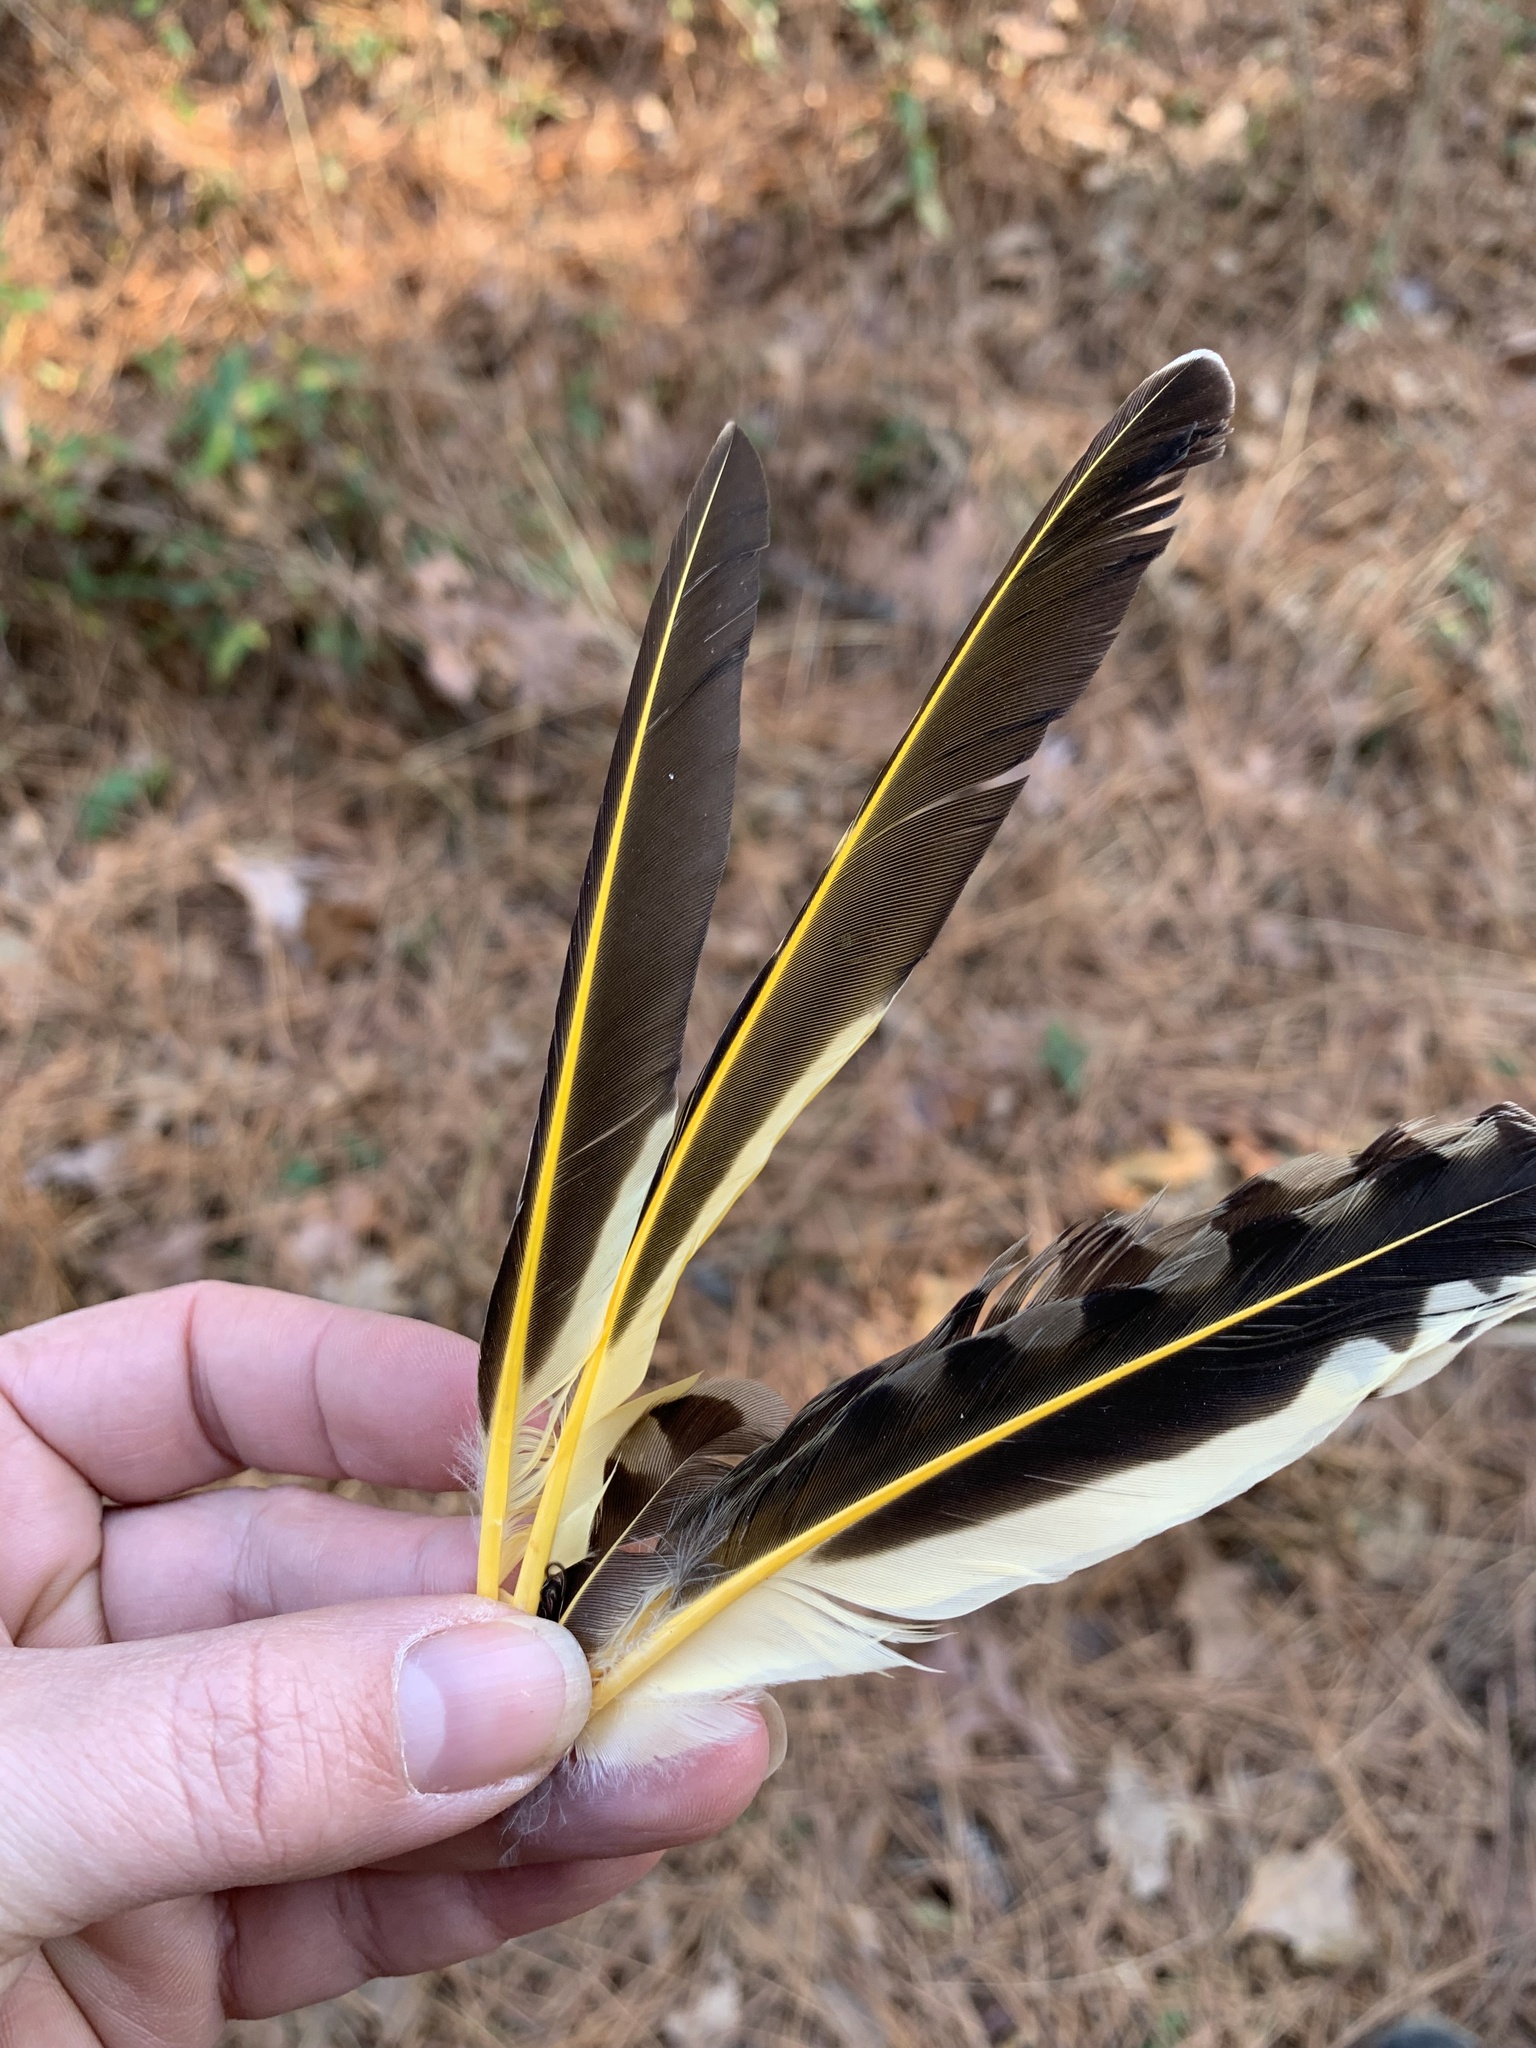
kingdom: Animalia
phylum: Chordata
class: Aves
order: Piciformes
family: Picidae
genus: Colaptes
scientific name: Colaptes auratus
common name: Northern flicker
